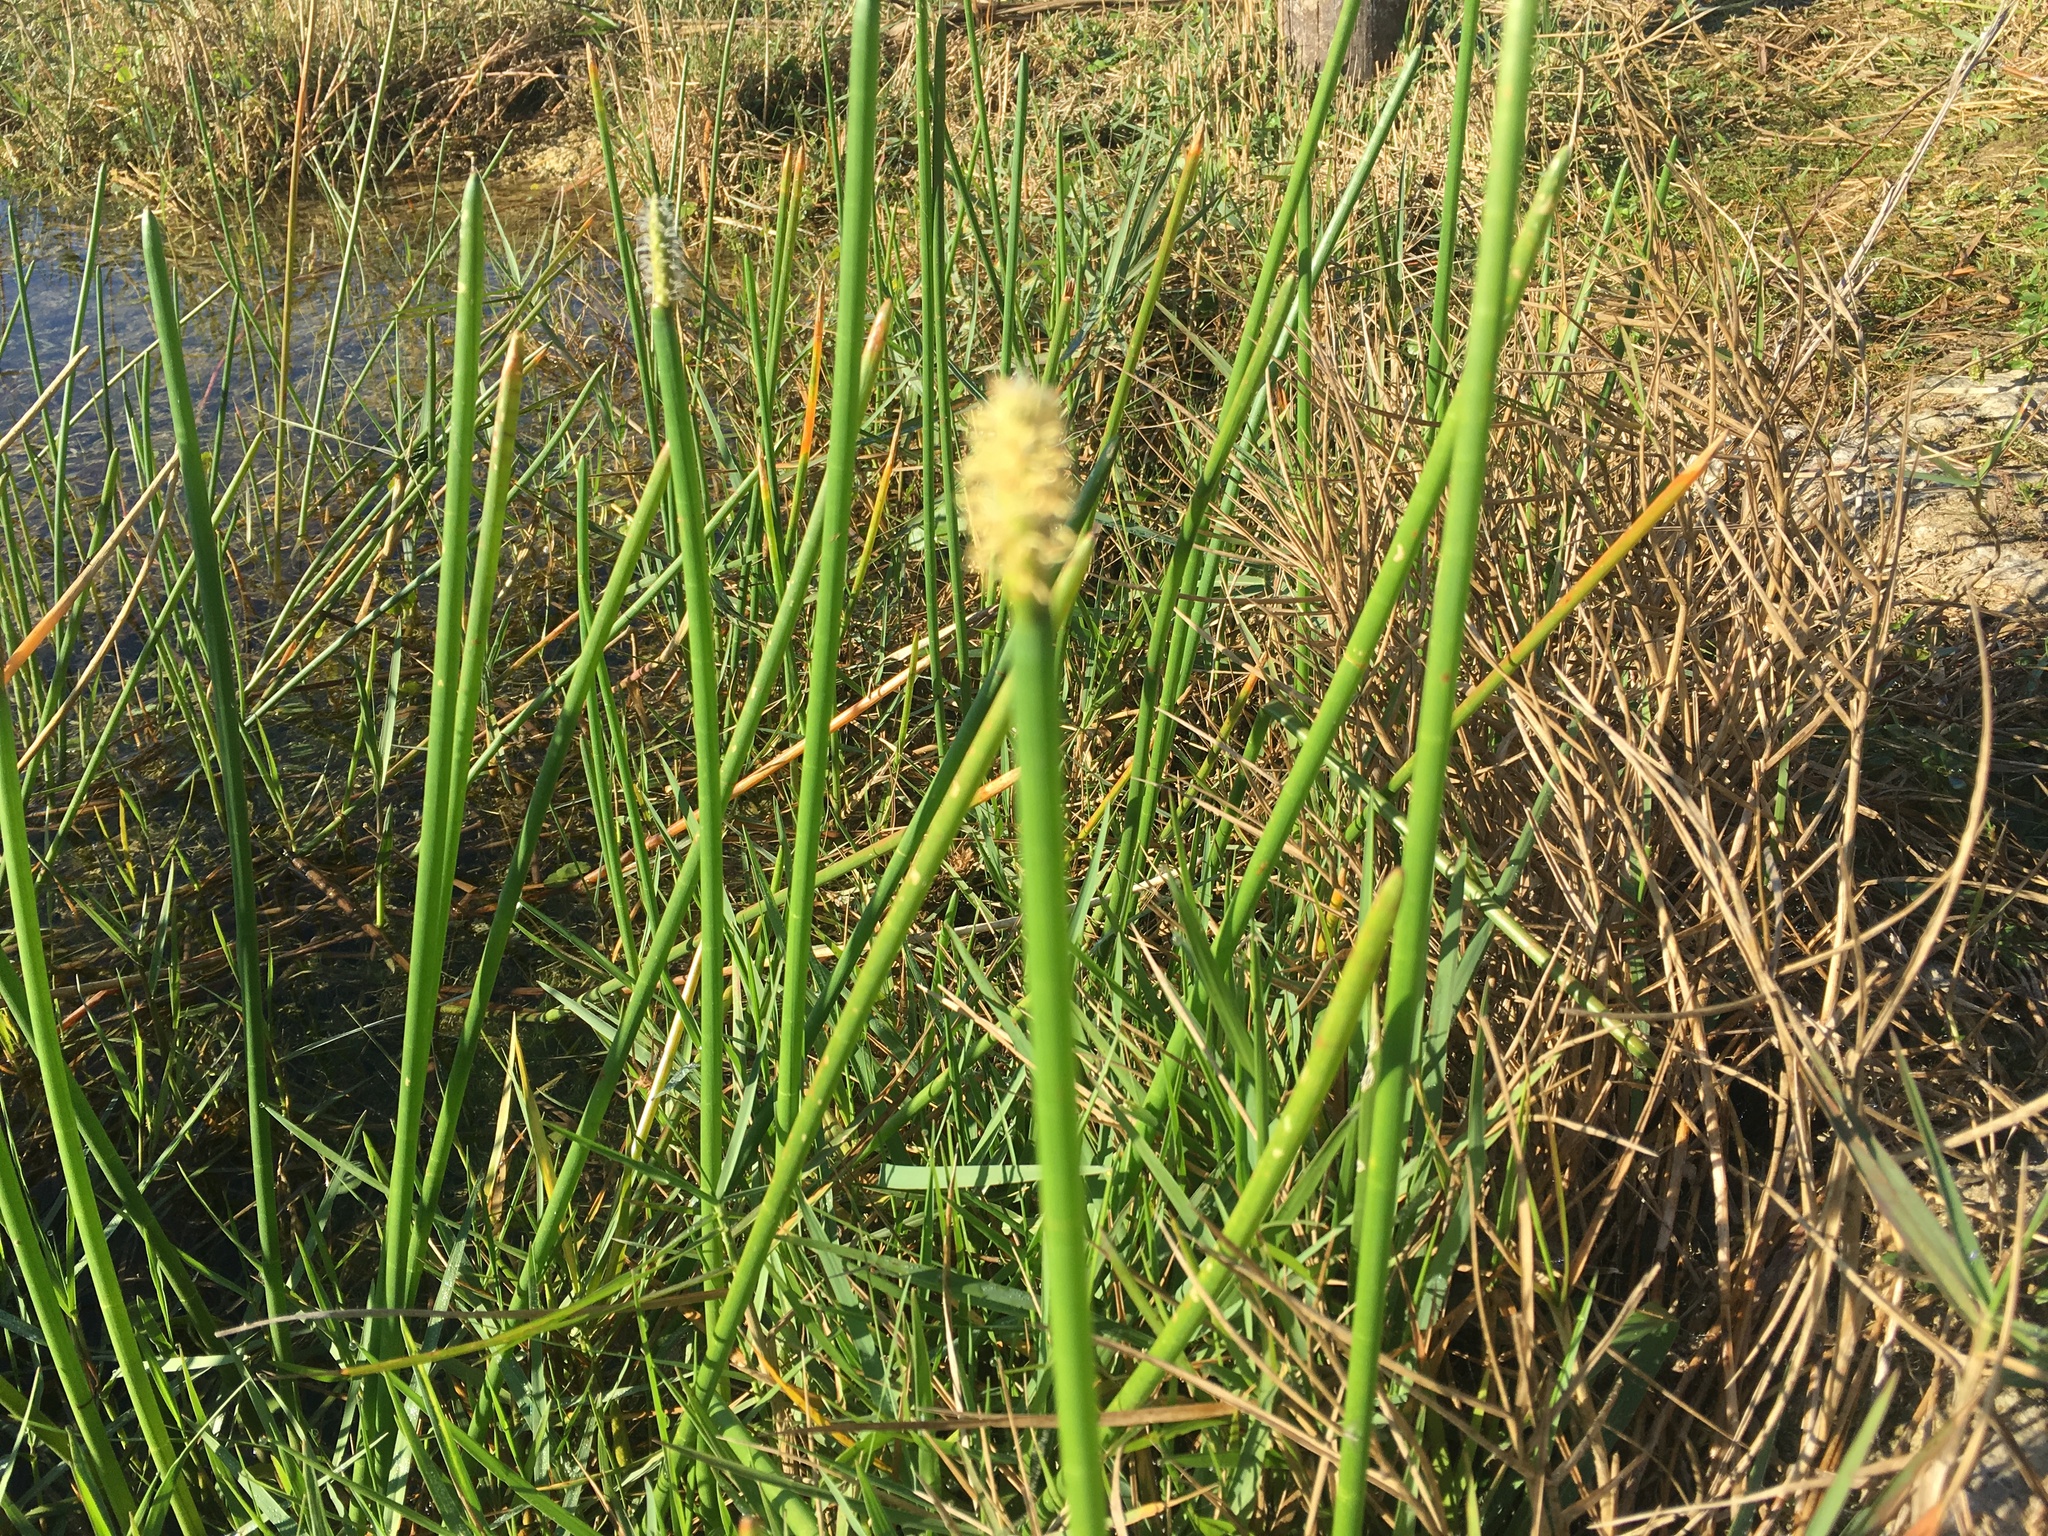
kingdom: Plantae
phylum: Tracheophyta
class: Liliopsida
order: Poales
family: Cyperaceae
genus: Eleocharis
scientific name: Eleocharis interstincta
